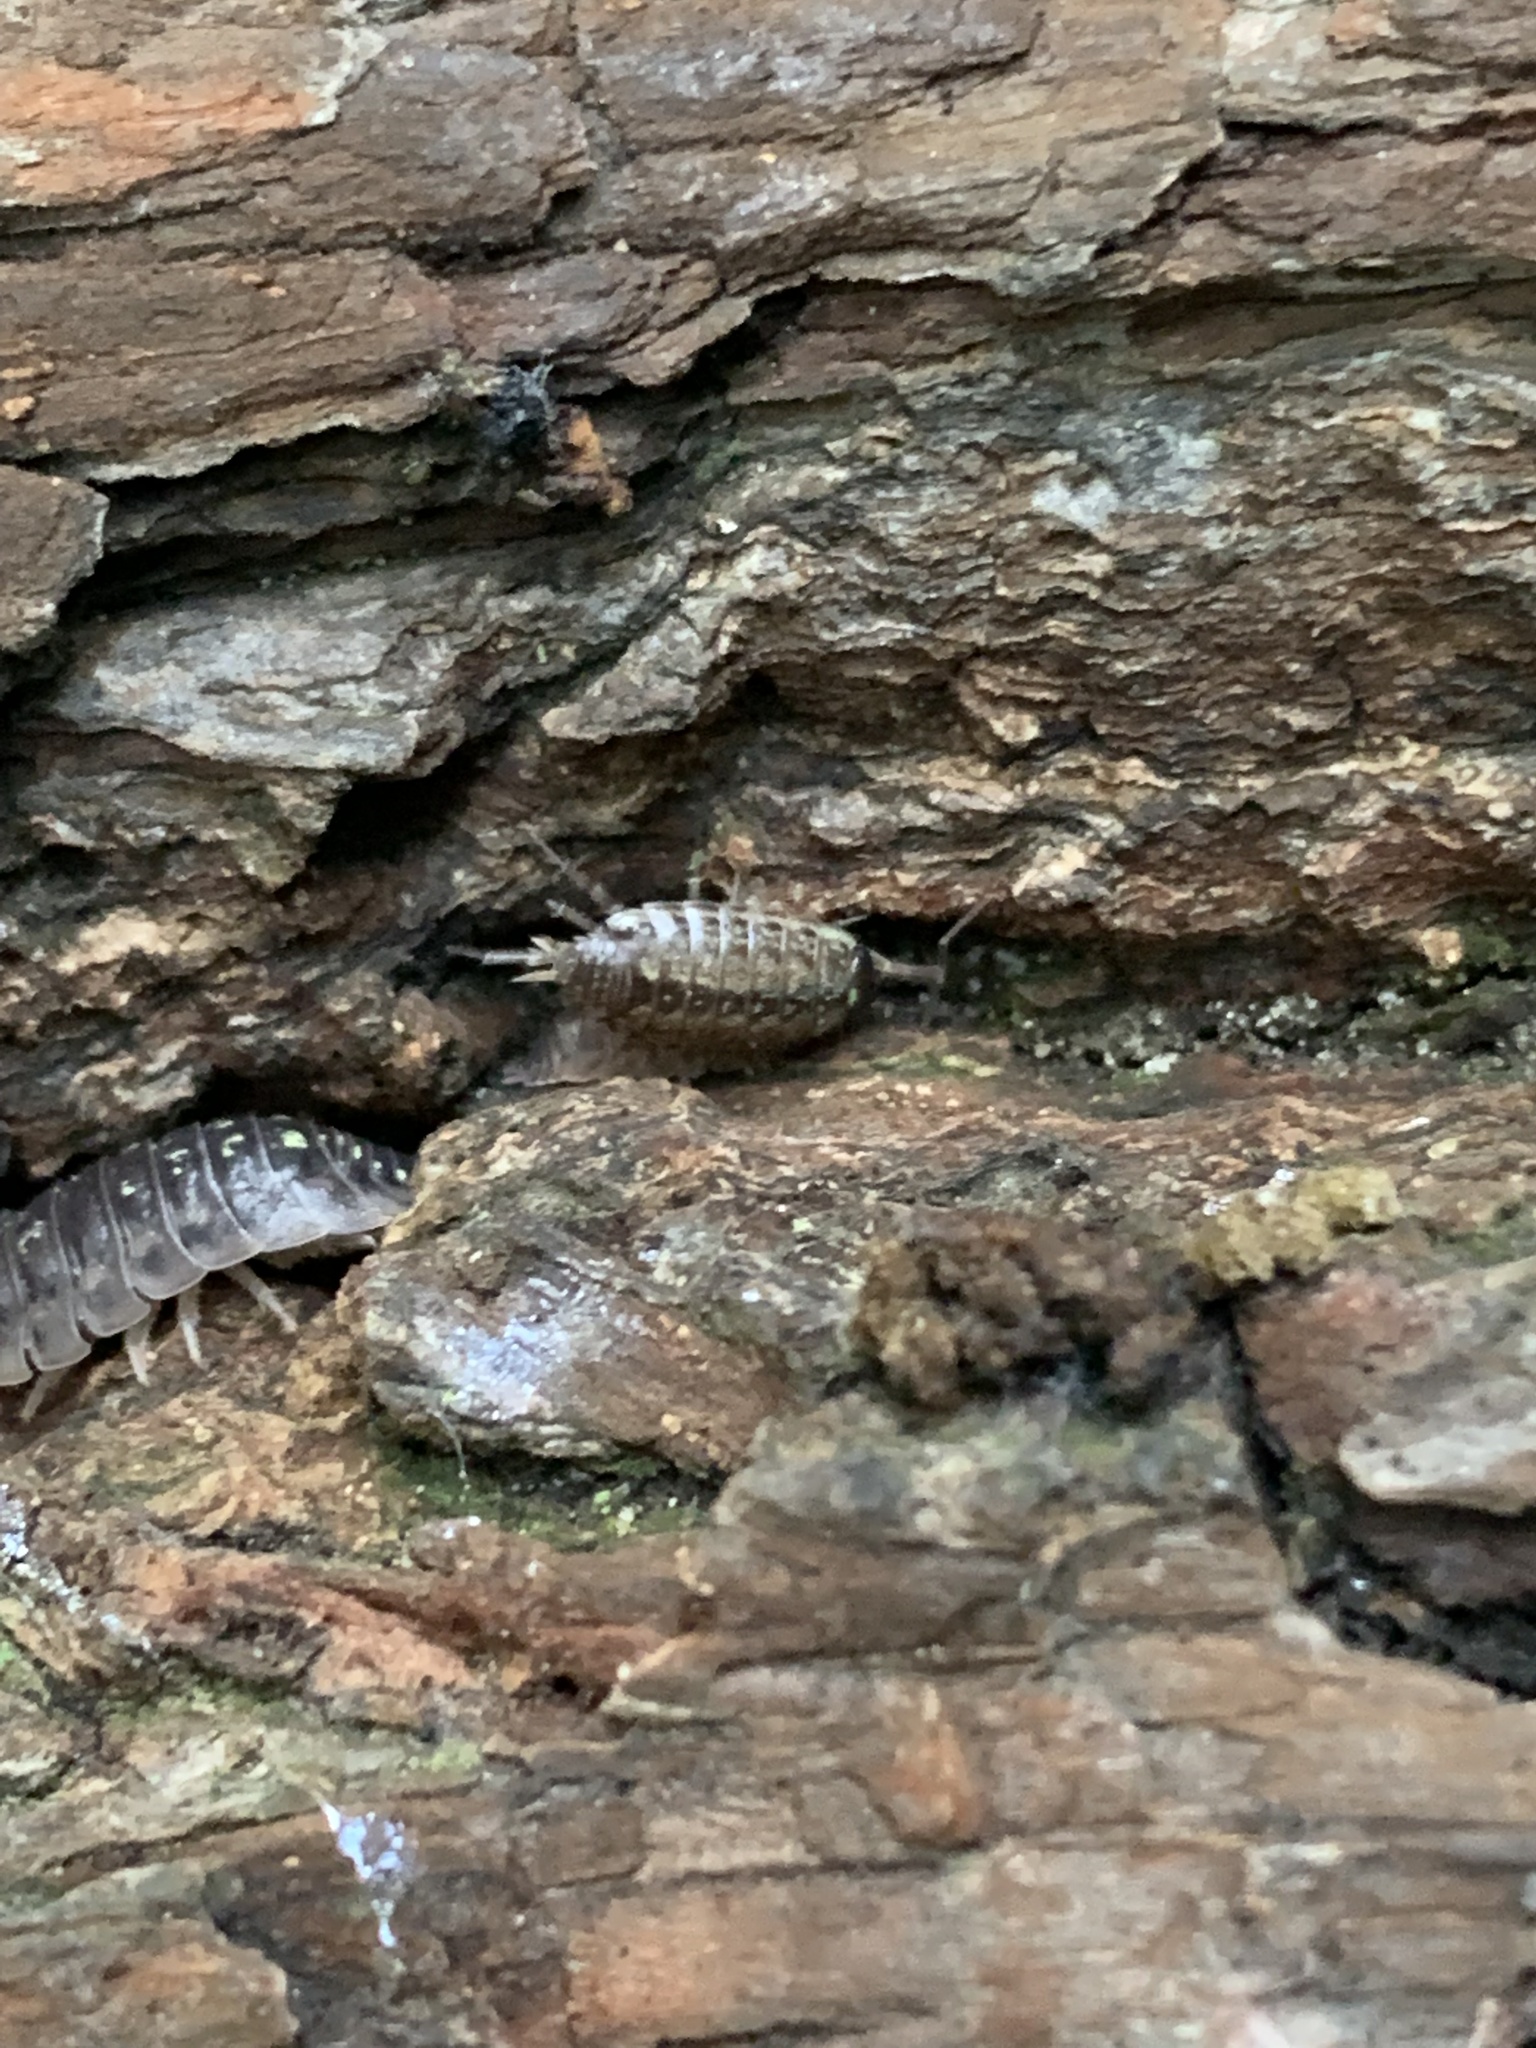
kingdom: Animalia
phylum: Arthropoda
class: Malacostraca
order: Isopoda
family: Philosciidae
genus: Philoscia
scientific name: Philoscia muscorum
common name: Common striped woodlouse
